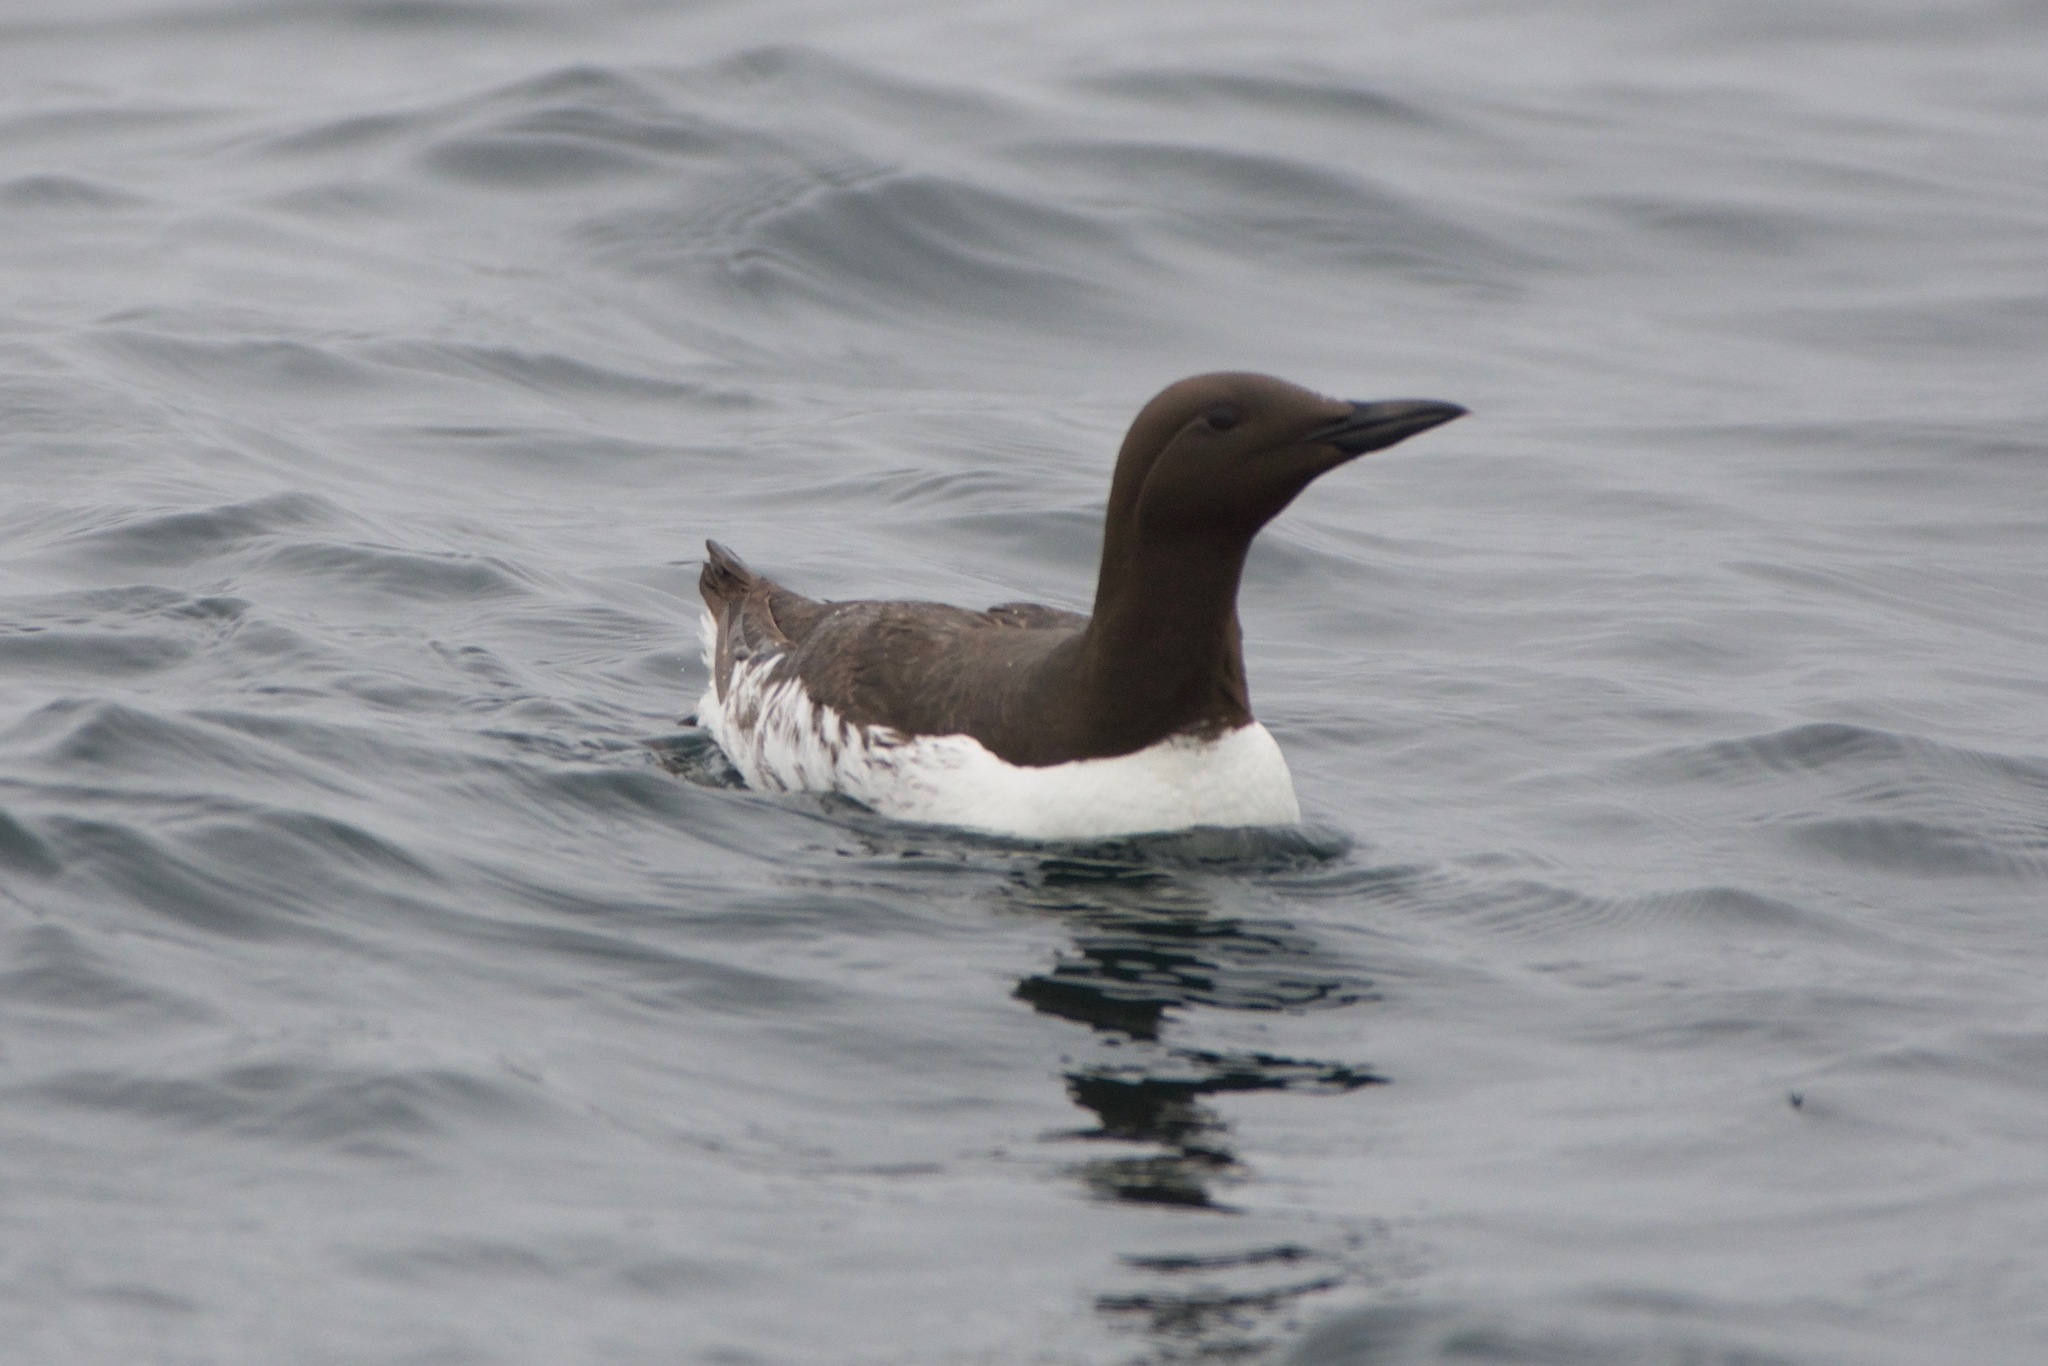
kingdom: Animalia
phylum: Chordata
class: Aves
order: Charadriiformes
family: Alcidae
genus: Uria
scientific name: Uria aalge
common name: Common murre
